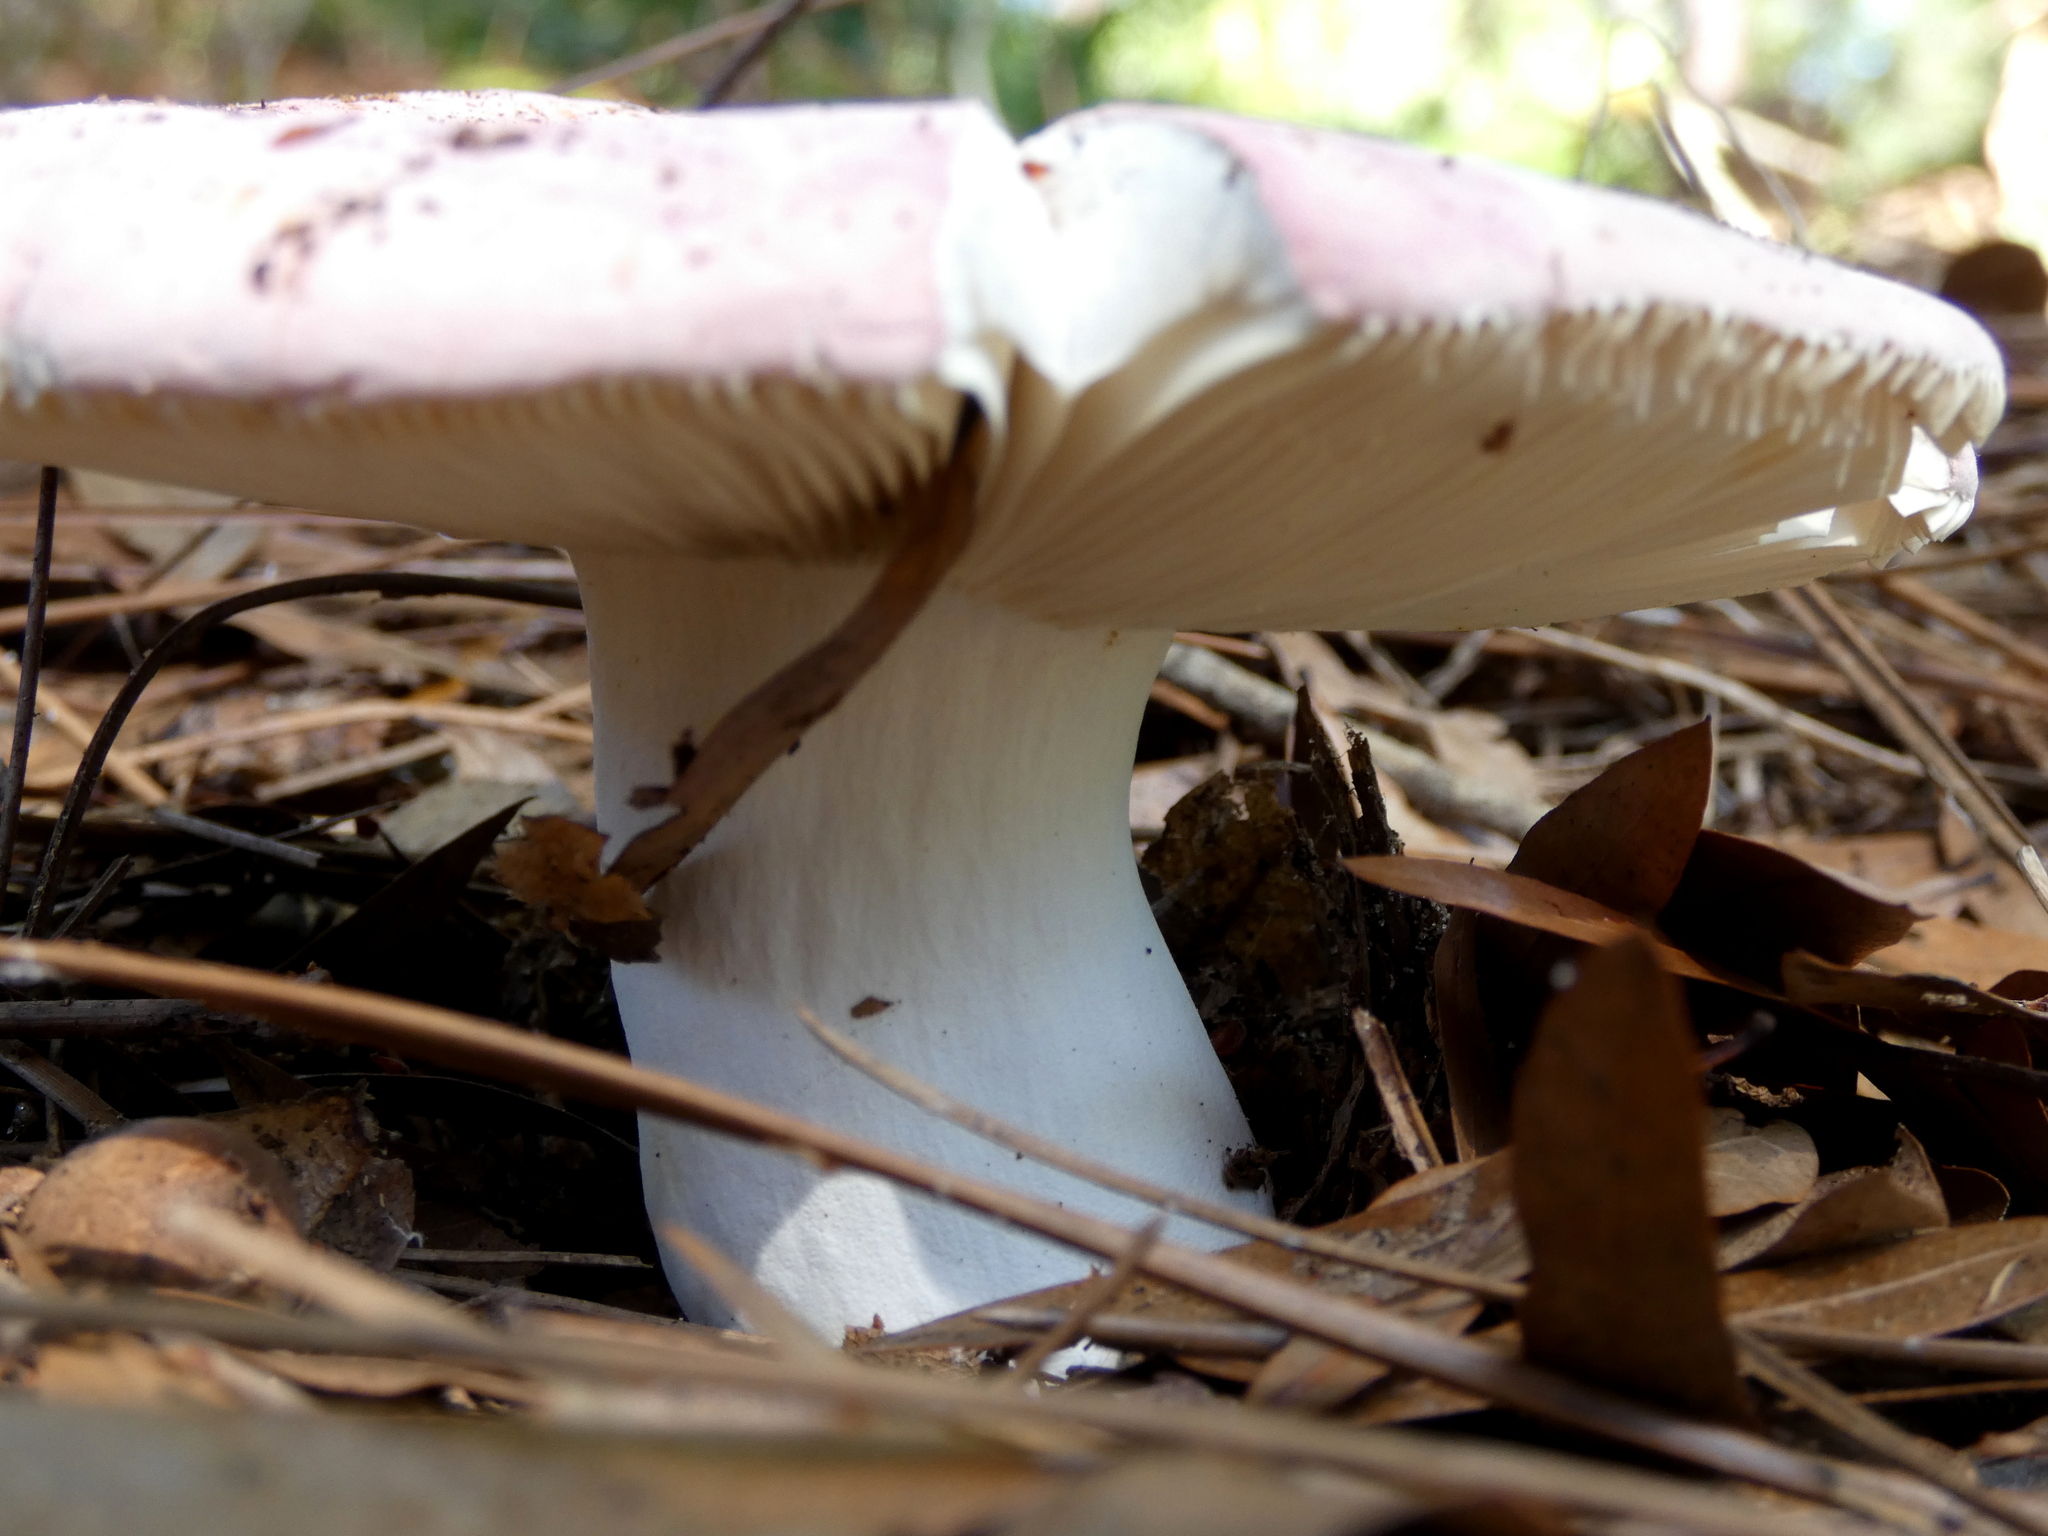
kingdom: Fungi
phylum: Basidiomycota
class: Agaricomycetes
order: Russulales
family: Russulaceae
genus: Russula
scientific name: Russula hixsonii
